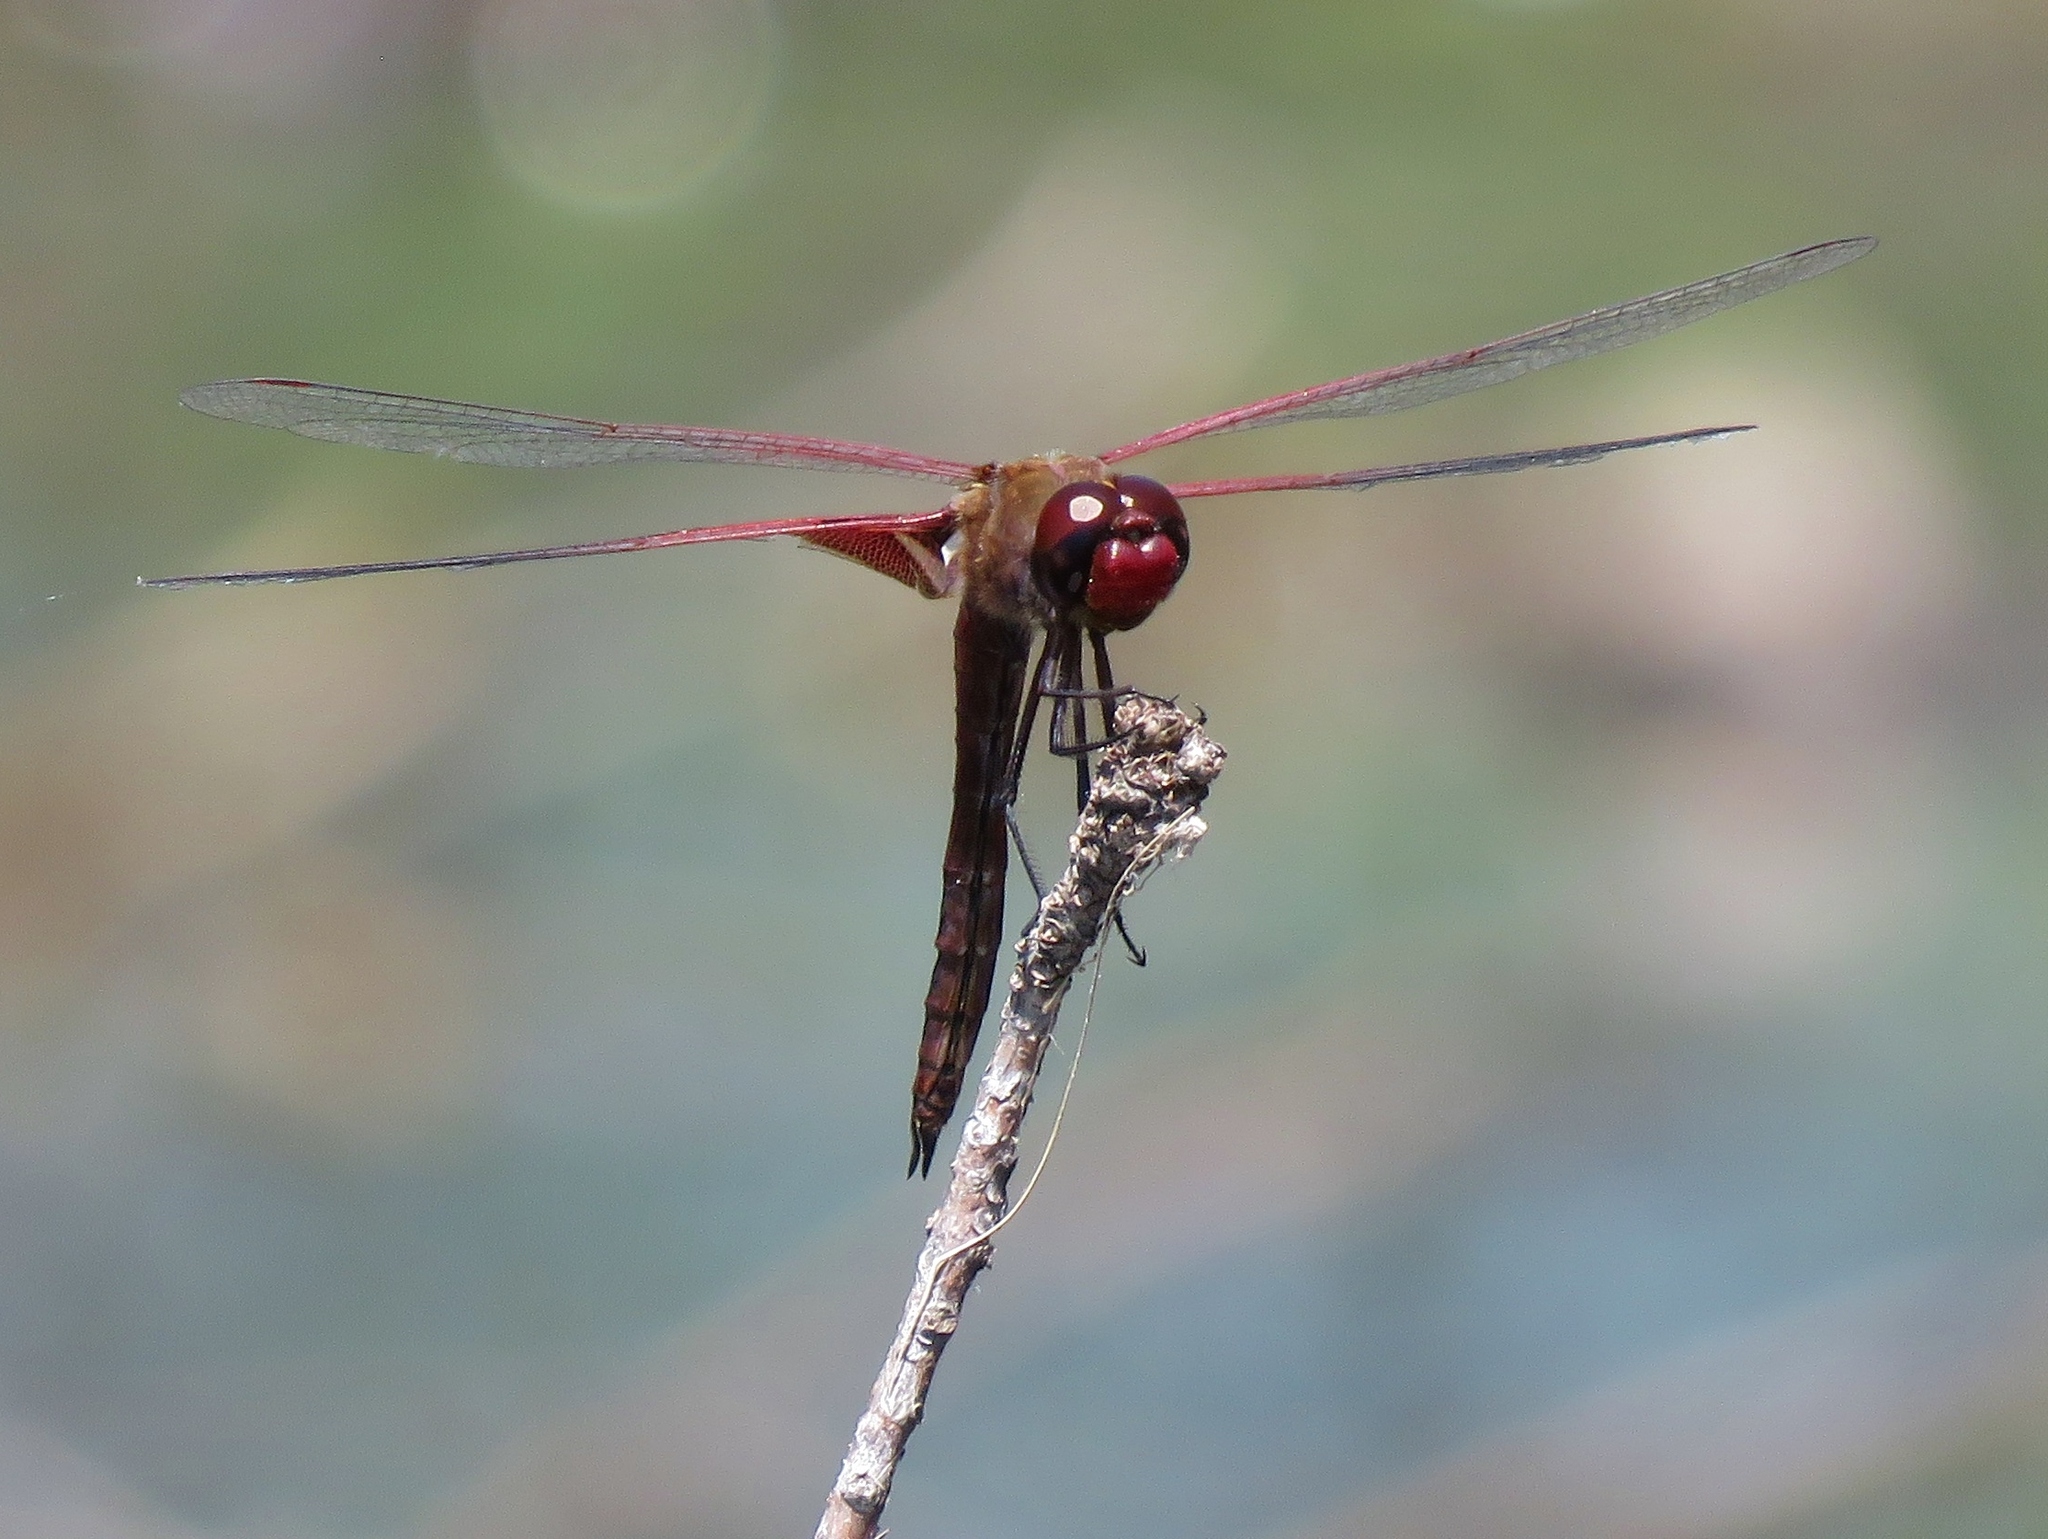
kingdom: Animalia
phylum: Arthropoda
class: Insecta
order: Odonata
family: Libellulidae
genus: Tramea
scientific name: Tramea onusta
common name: Red saddlebags
